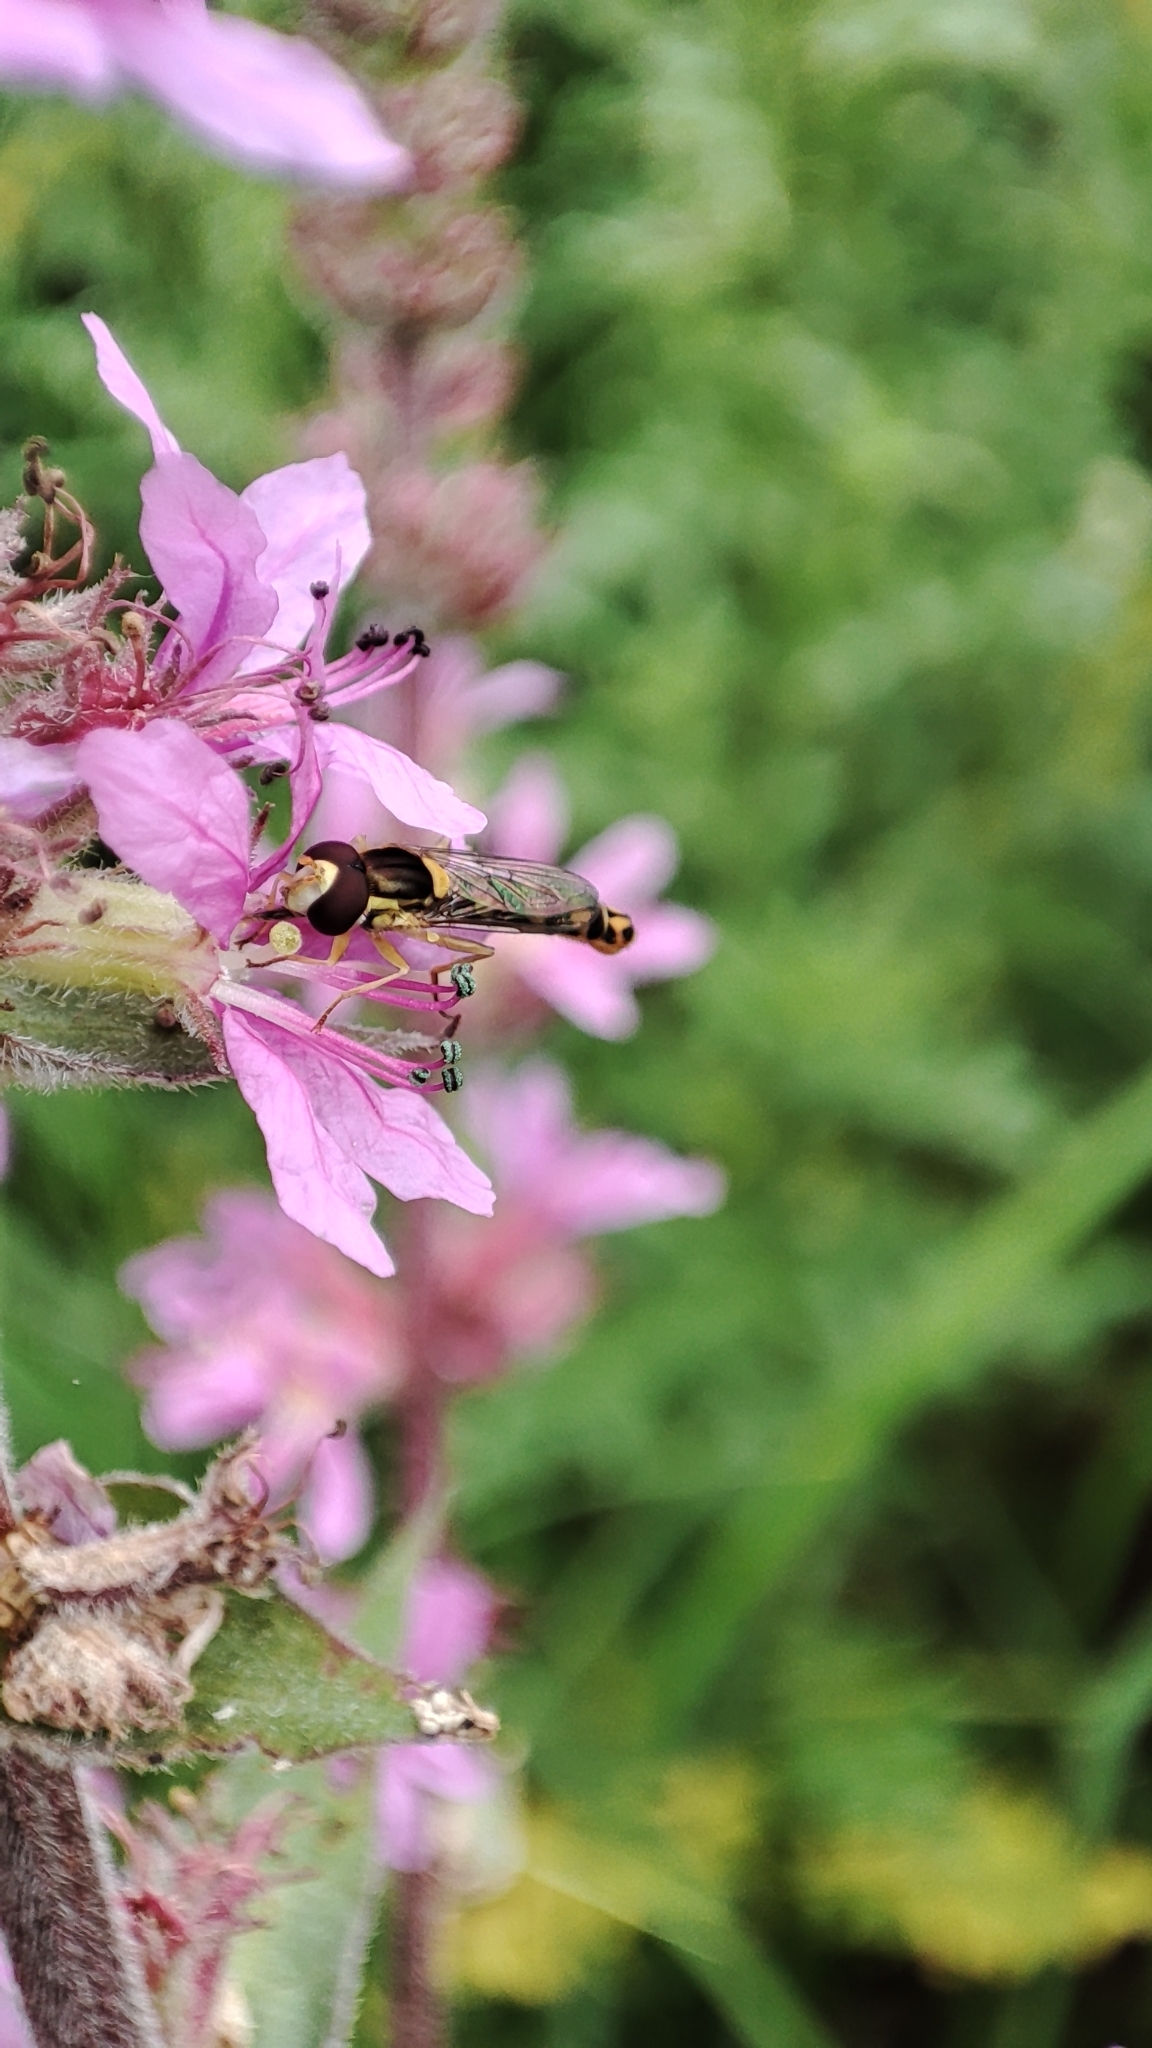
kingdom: Animalia
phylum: Arthropoda
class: Insecta
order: Diptera
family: Syrphidae
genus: Sphaerophoria
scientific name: Sphaerophoria scripta
